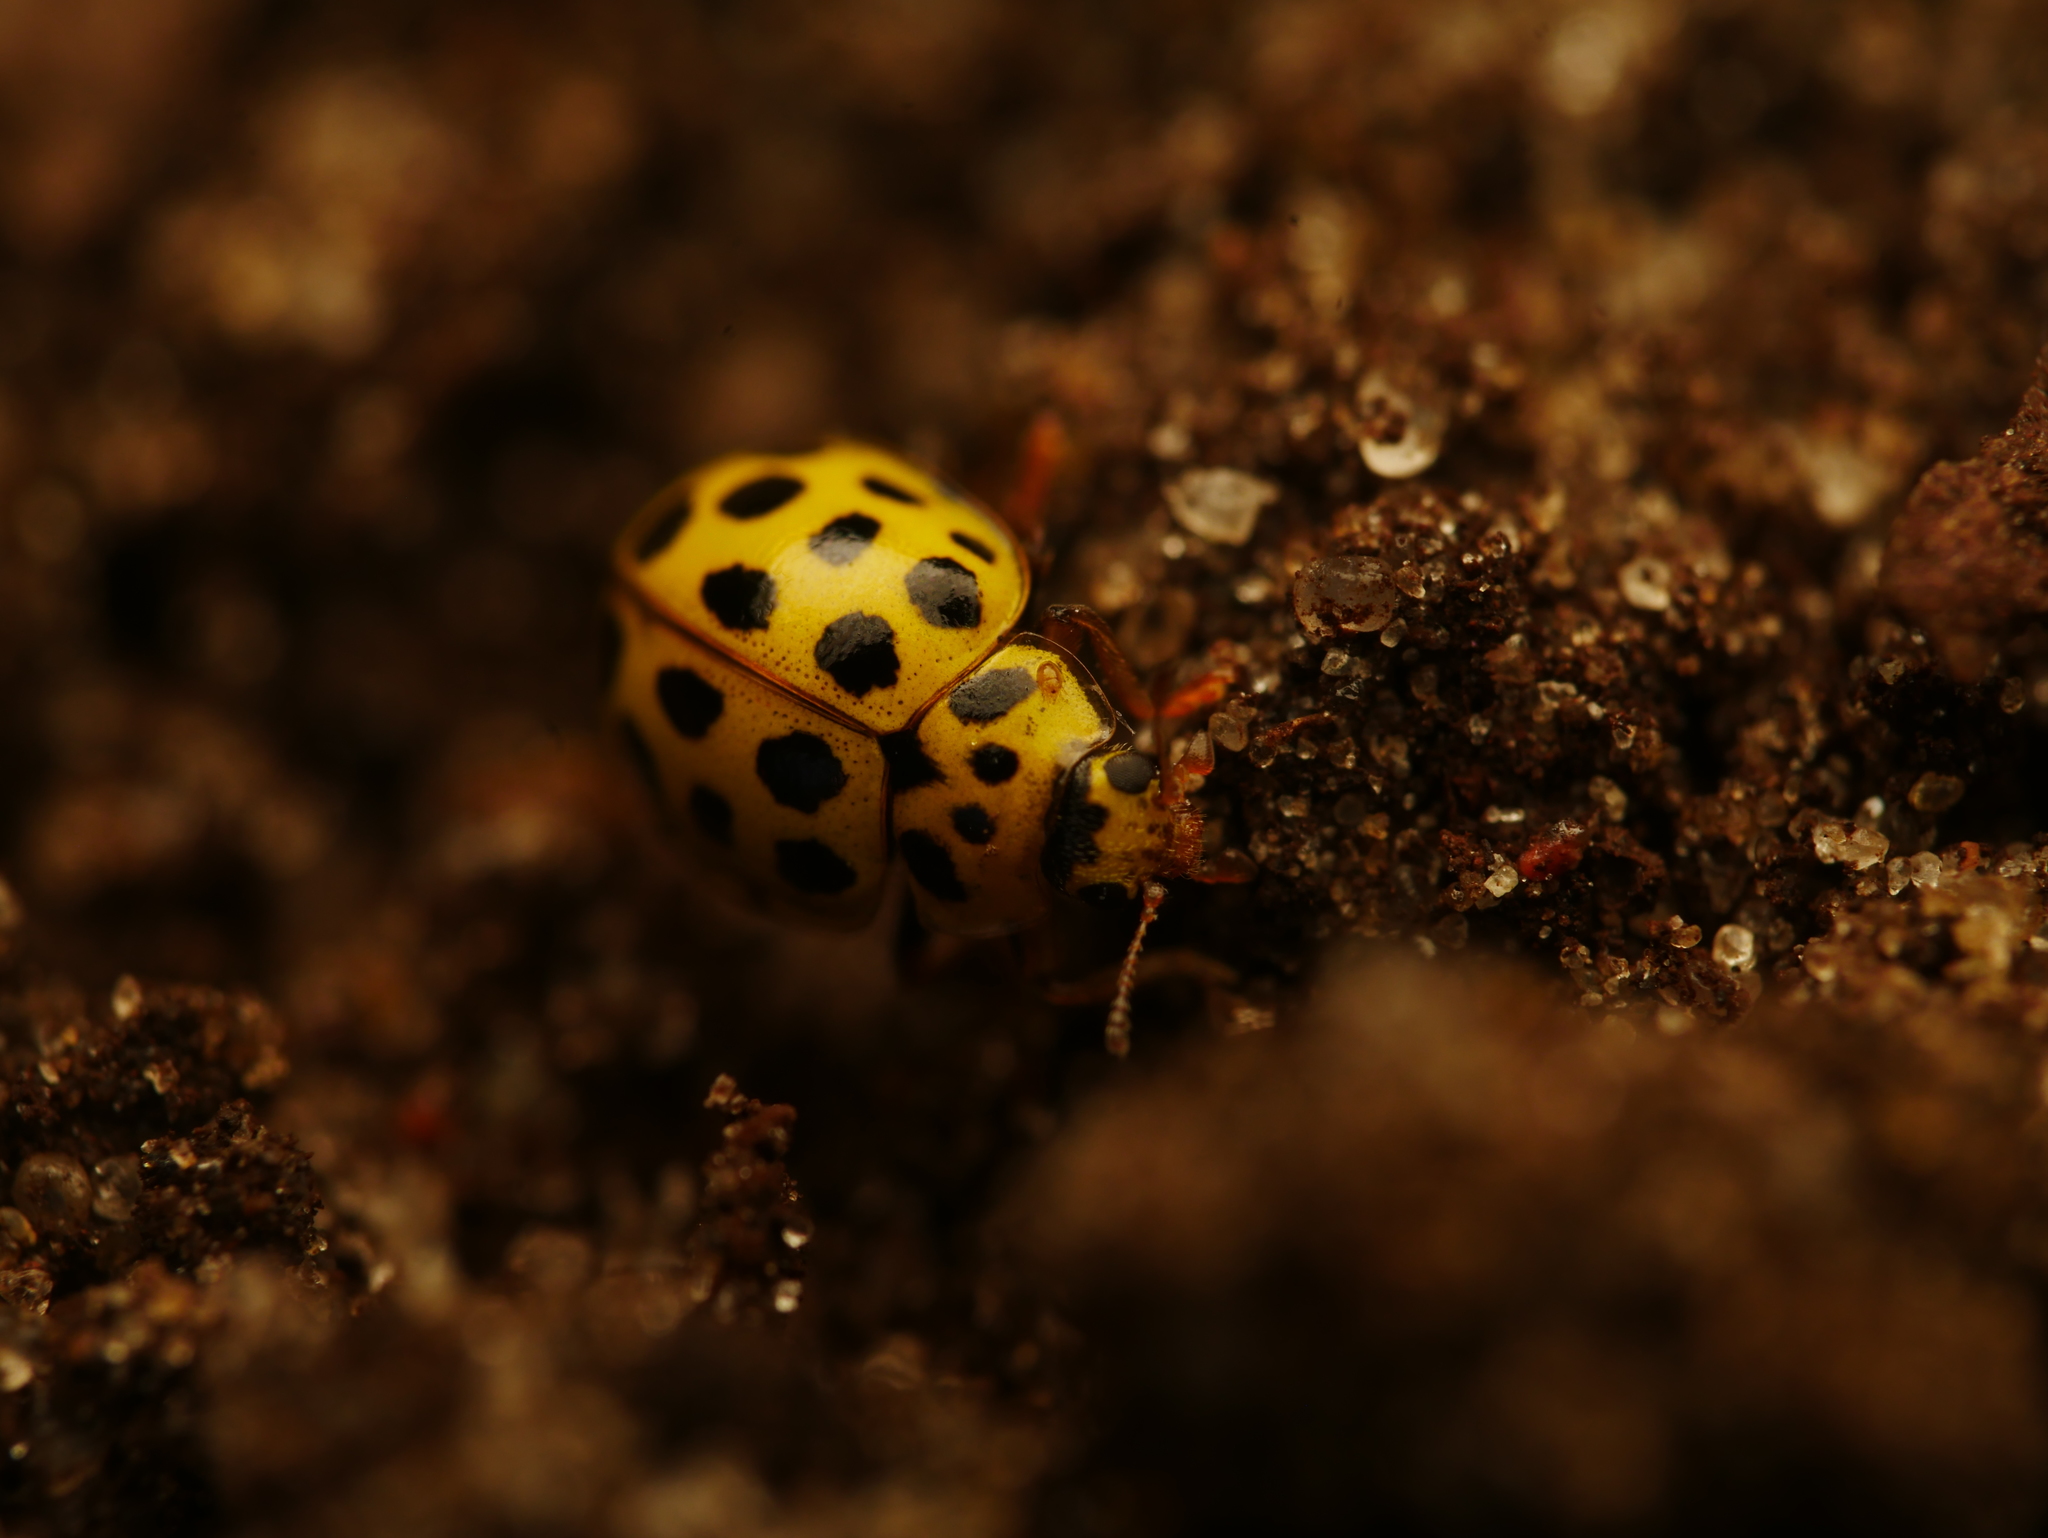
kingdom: Animalia
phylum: Arthropoda
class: Insecta
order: Coleoptera
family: Coccinellidae
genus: Psyllobora
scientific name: Psyllobora vigintiduopunctata
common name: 22-spot ladybird
